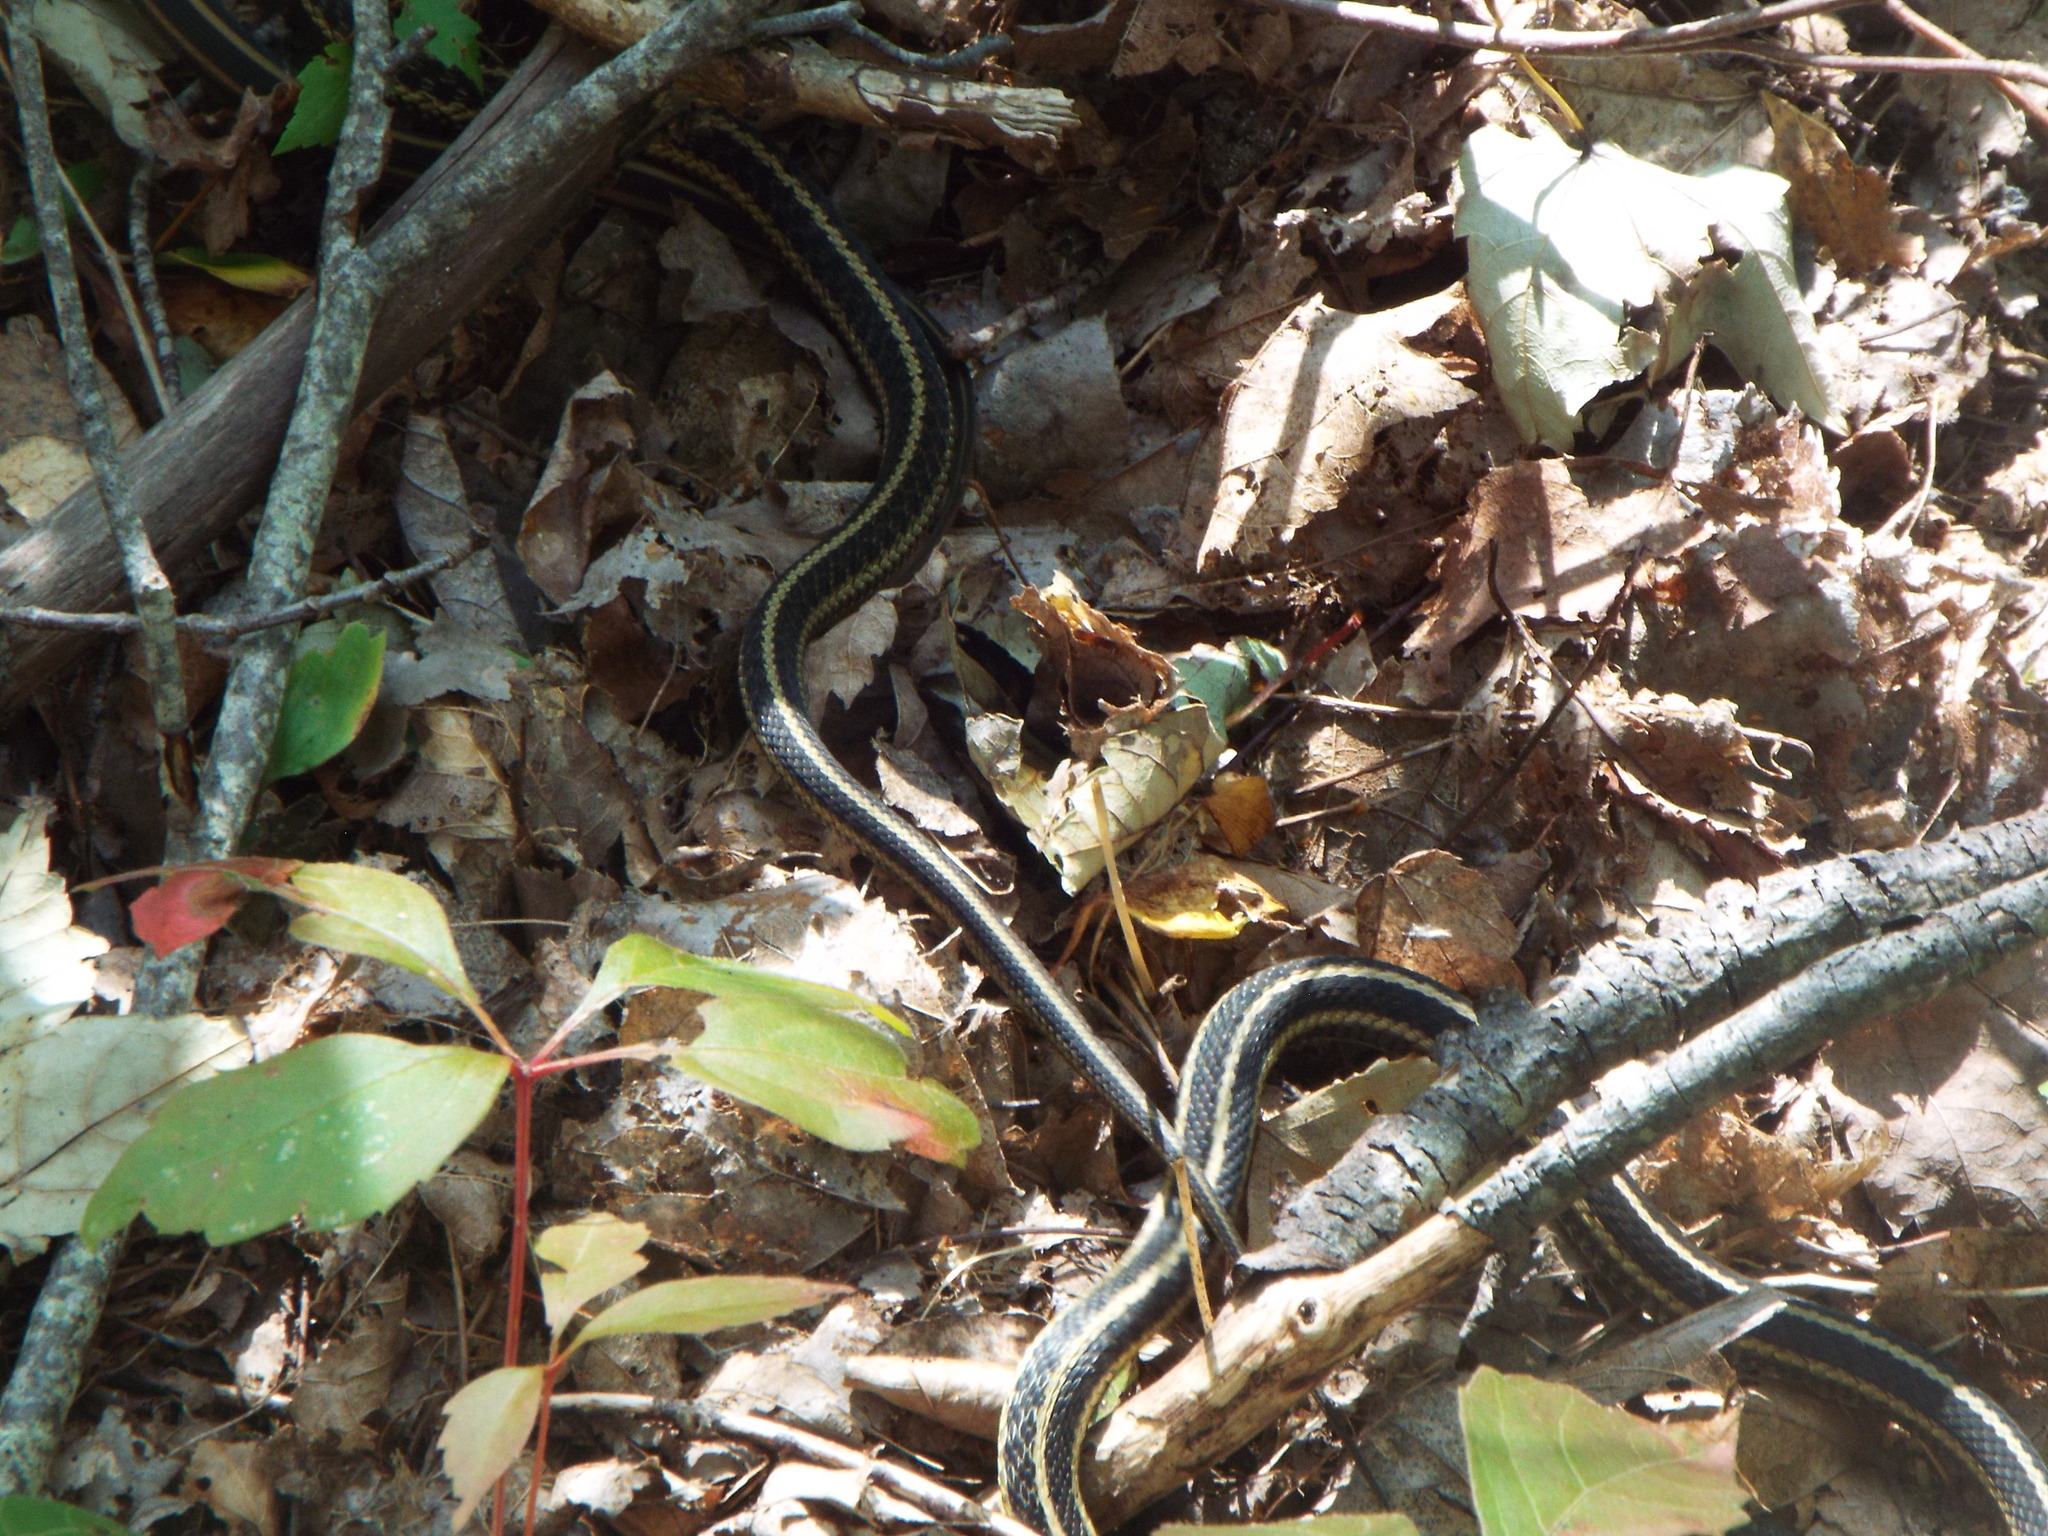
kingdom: Animalia
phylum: Chordata
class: Squamata
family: Colubridae
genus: Thamnophis
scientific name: Thamnophis sirtalis
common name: Common garter snake
